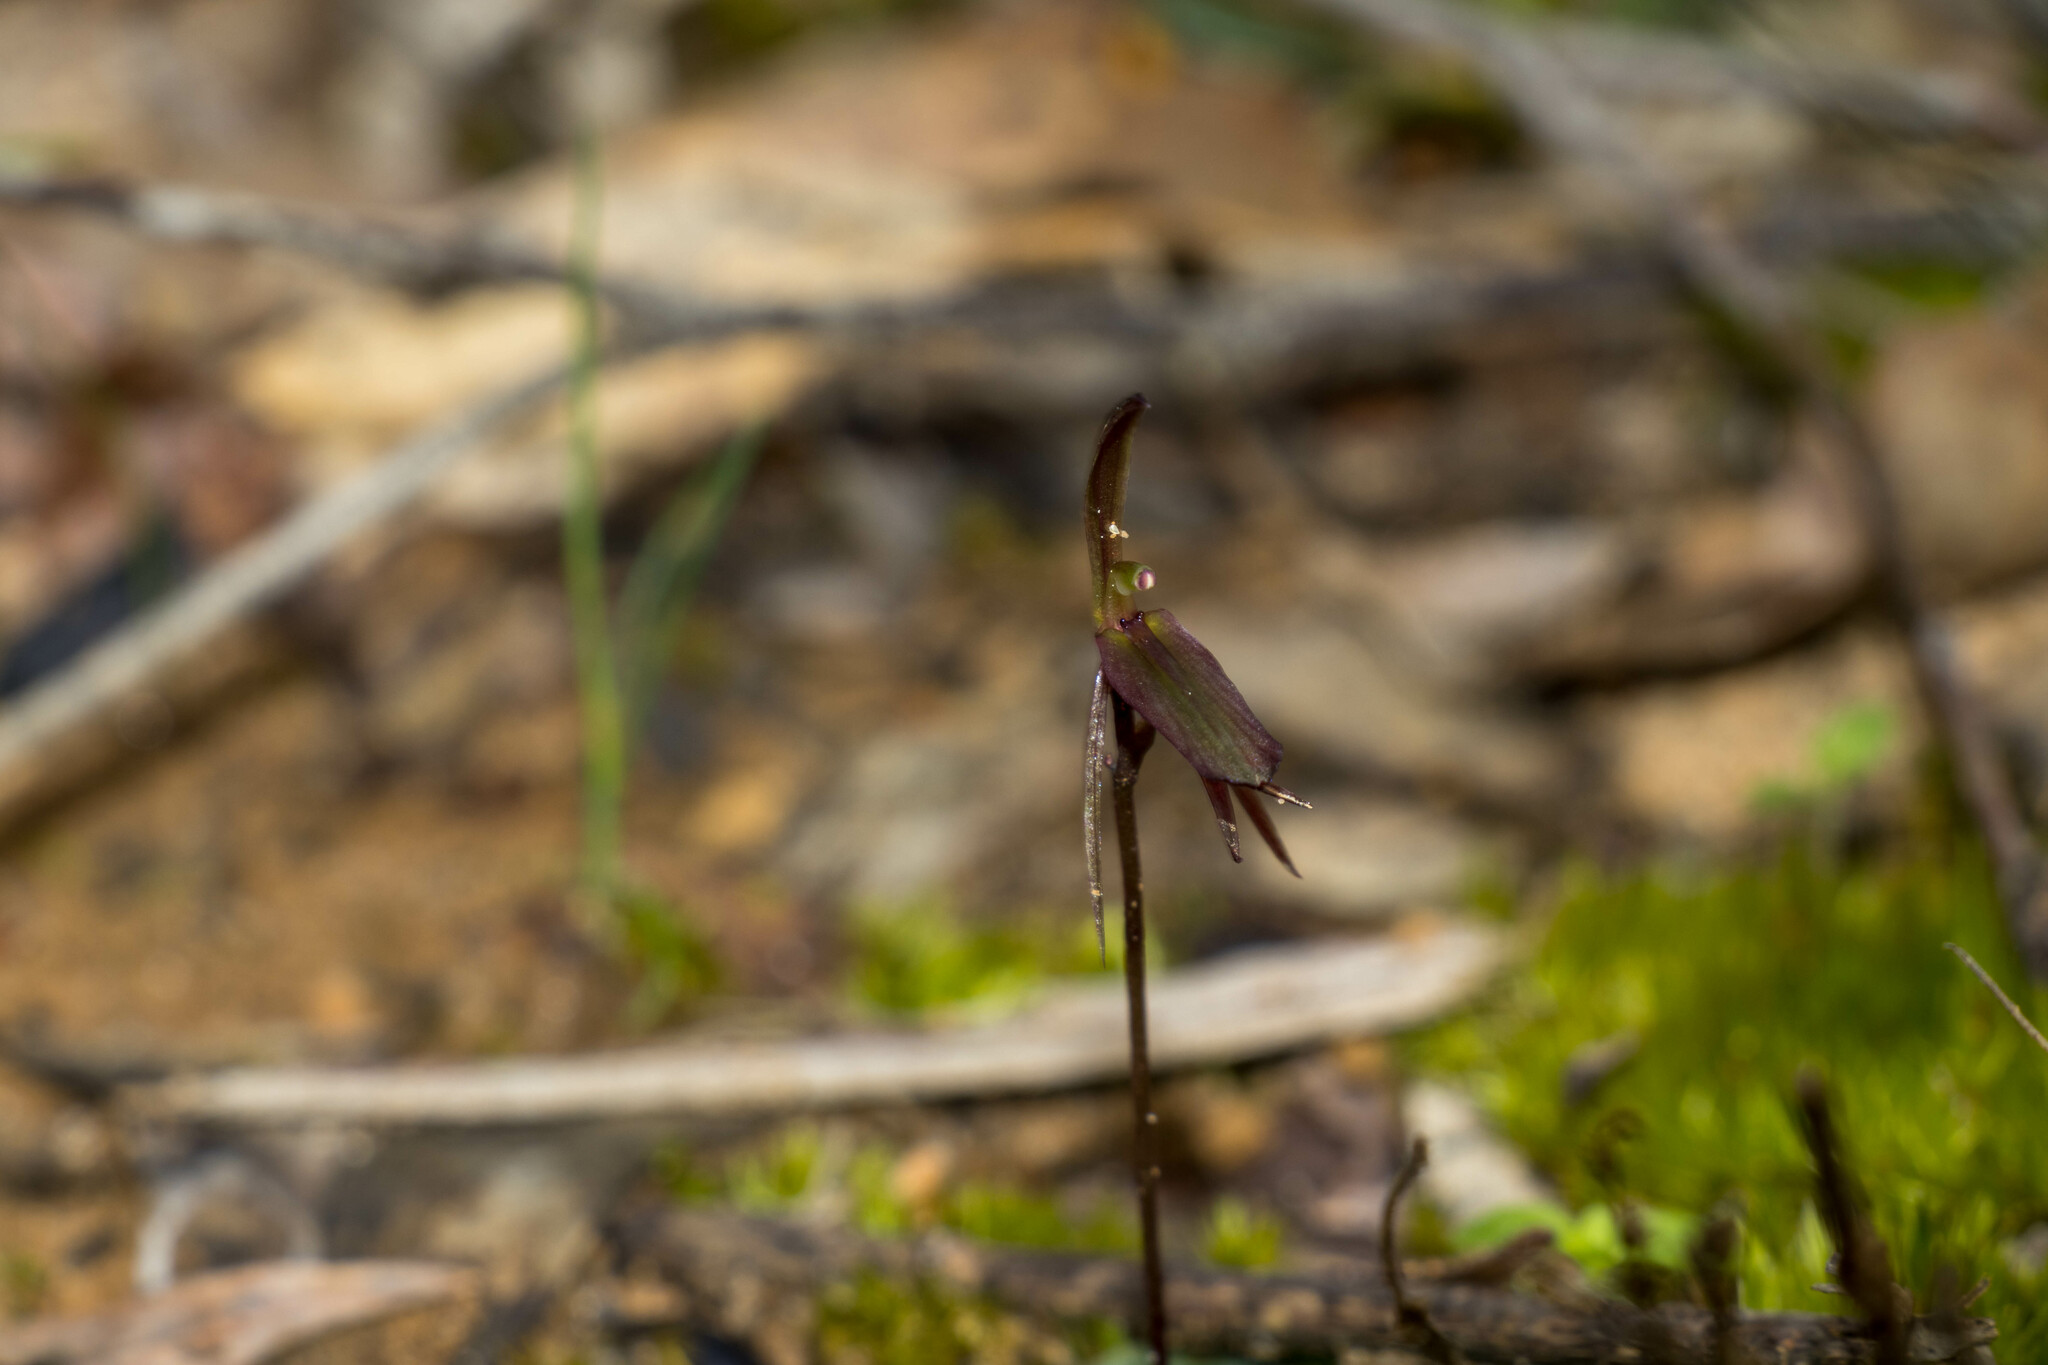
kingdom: Plantae
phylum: Tracheophyta
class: Liliopsida
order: Asparagales
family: Orchidaceae
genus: Cyrtostylis
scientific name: Cyrtostylis reniformis
